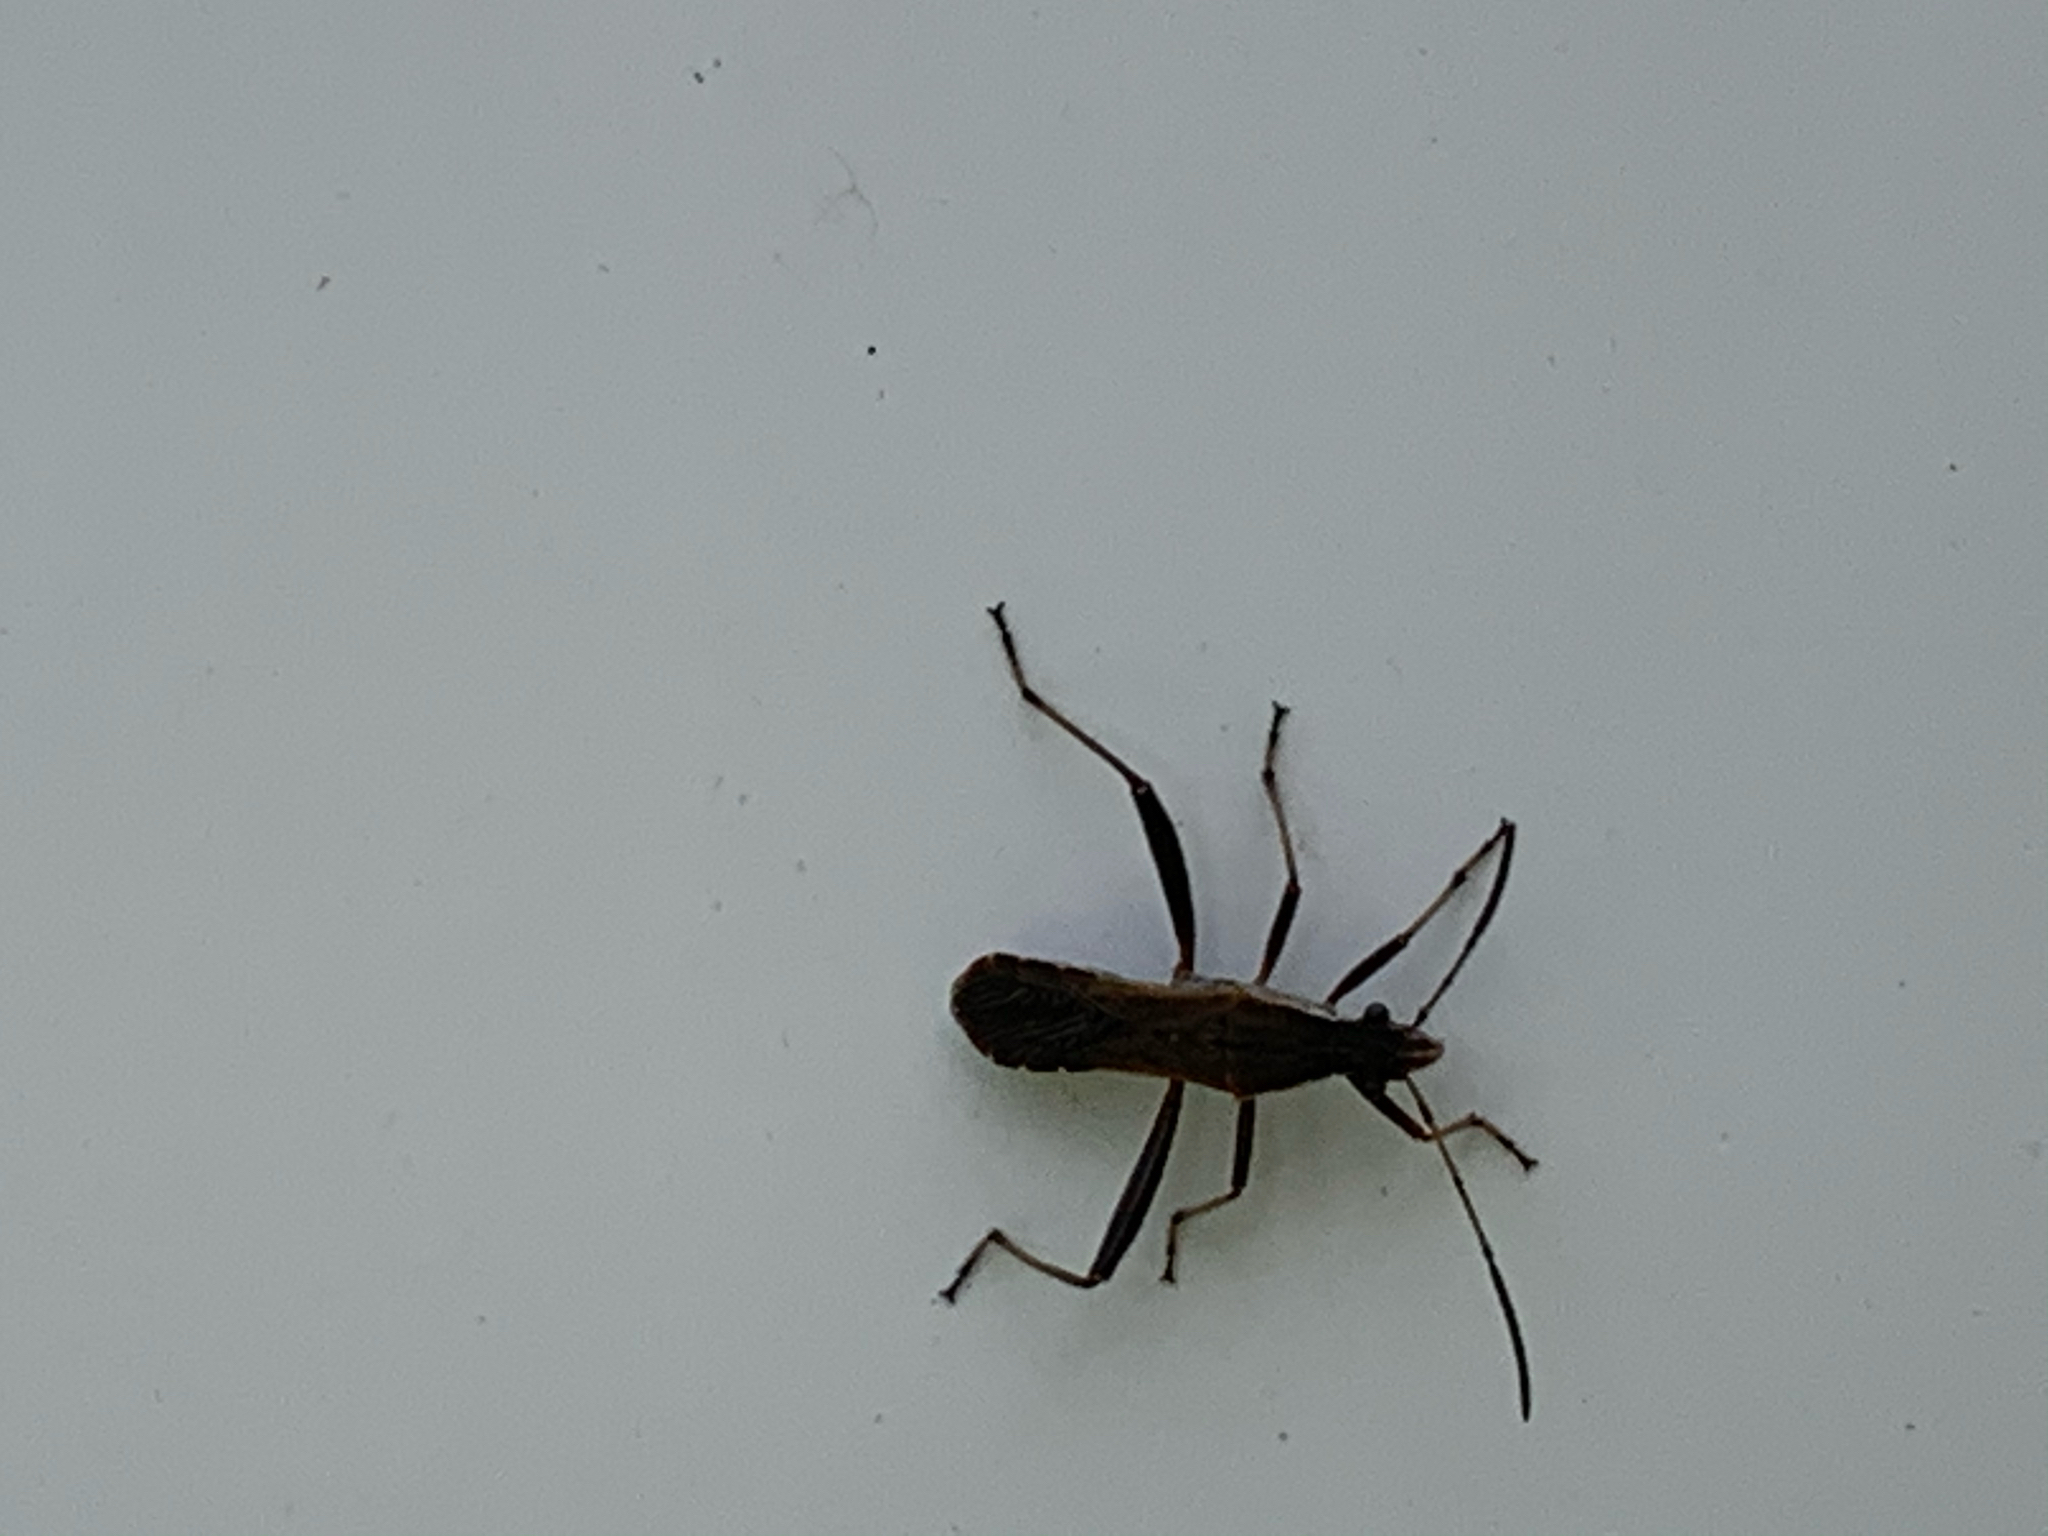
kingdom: Animalia
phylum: Arthropoda
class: Insecta
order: Hemiptera
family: Alydidae
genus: Alydus
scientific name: Alydus pilosulus
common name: Broad-headed bug
